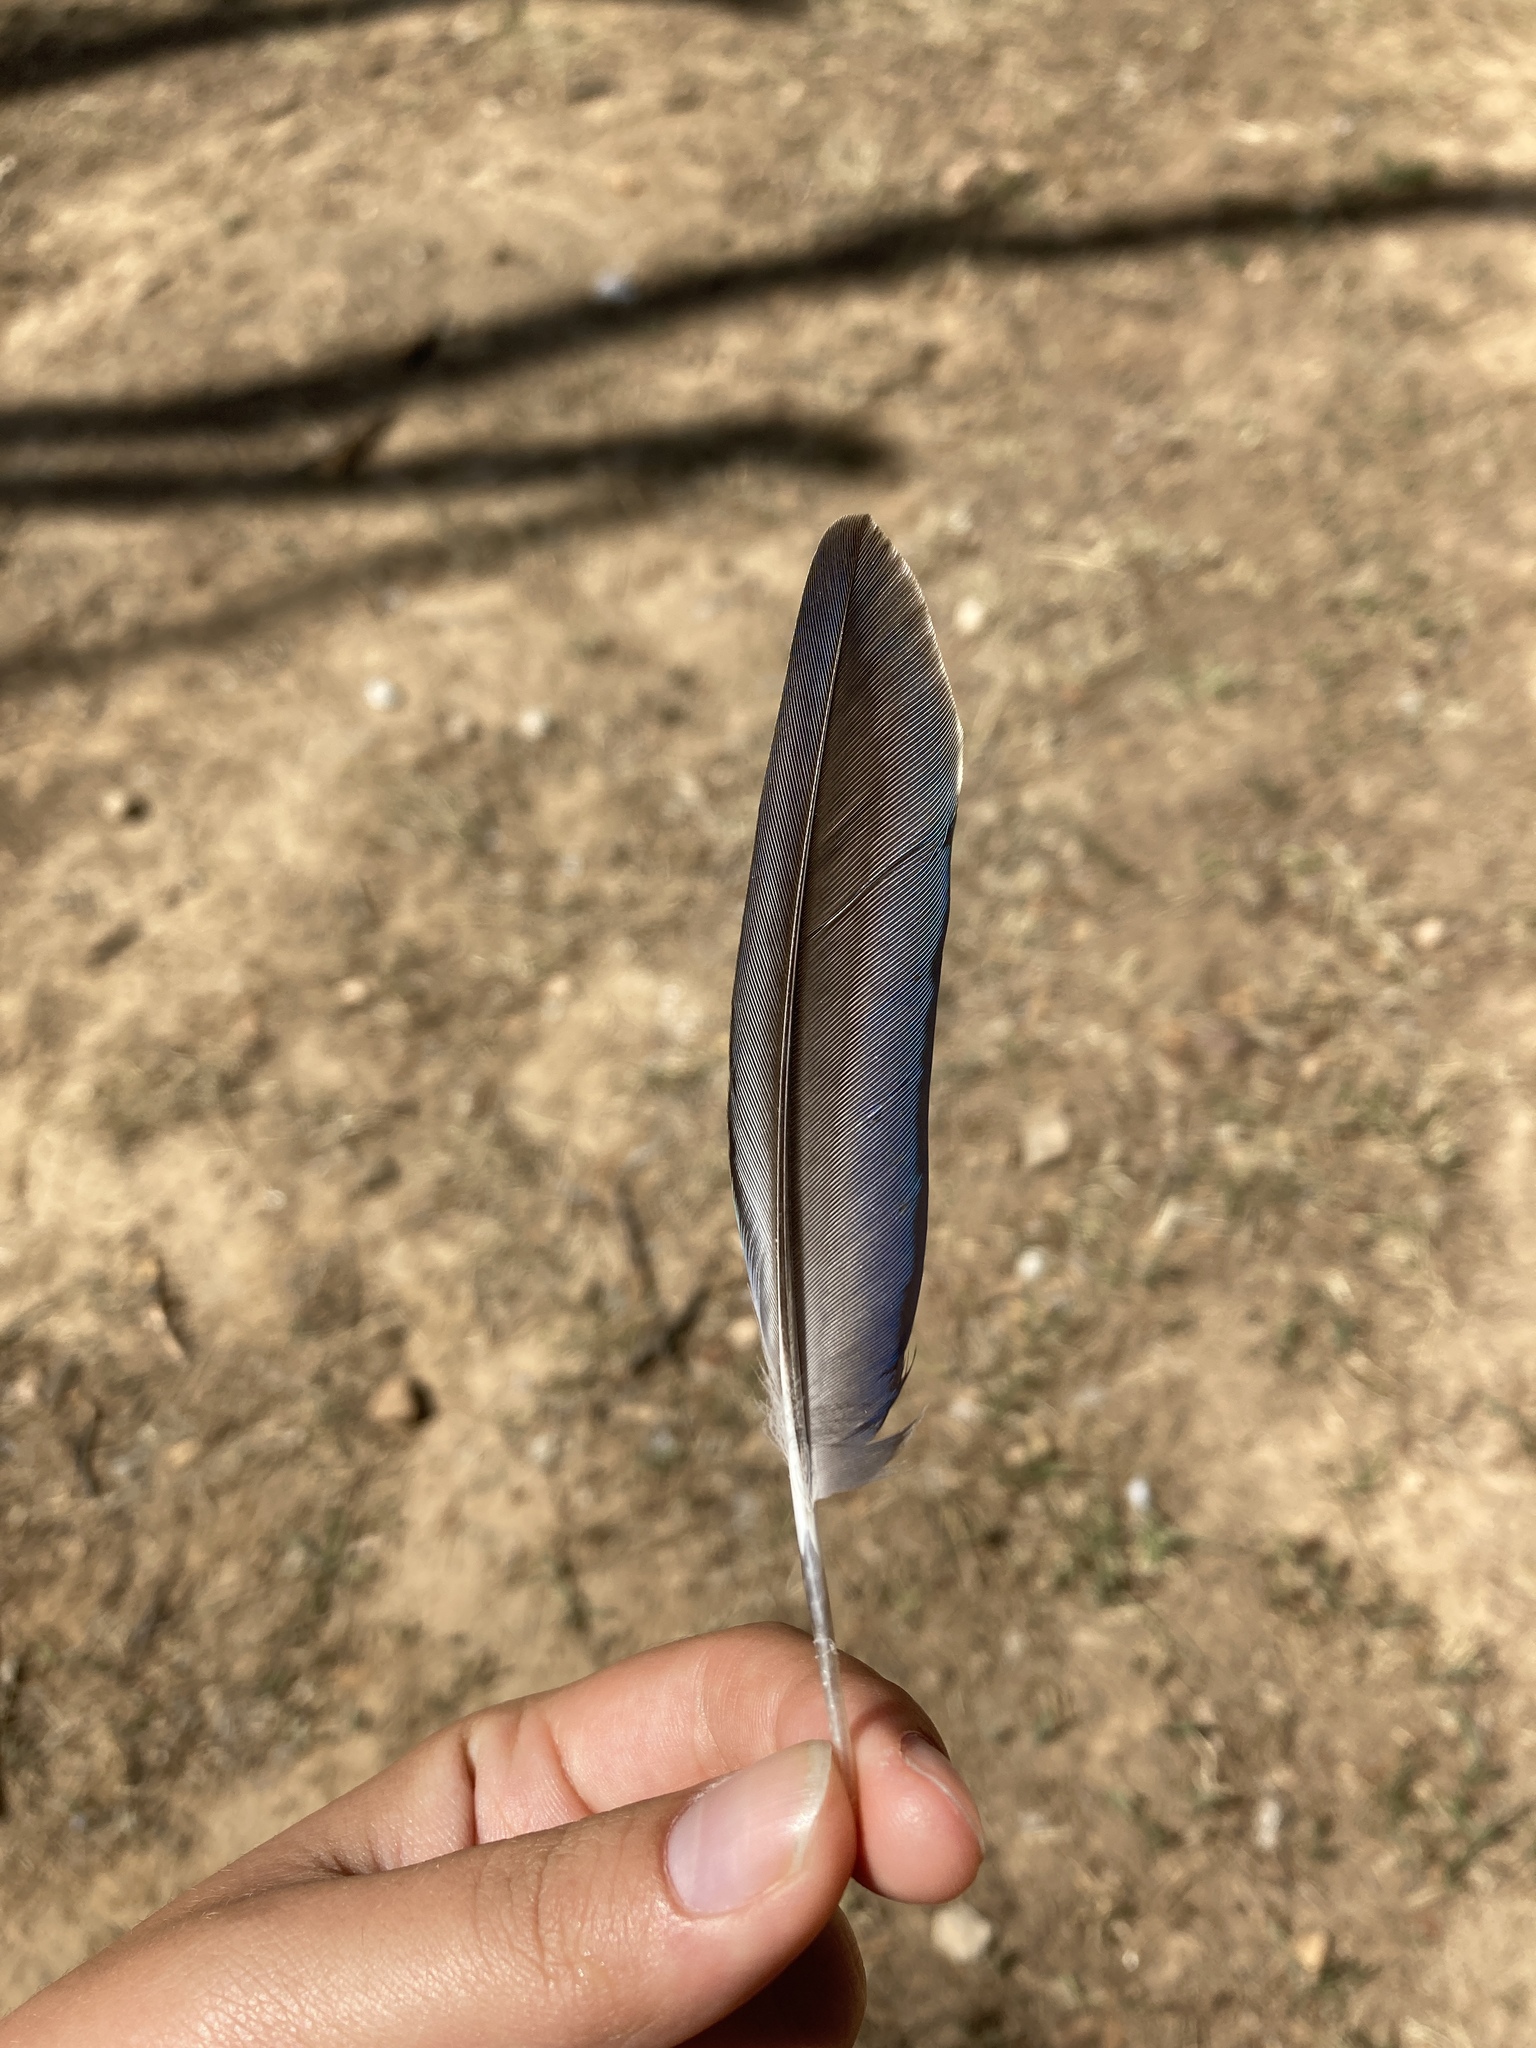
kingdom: Animalia
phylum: Chordata
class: Aves
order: Psittaciformes
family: Psittacidae
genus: Myiopsitta
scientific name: Myiopsitta monachus
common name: Monk parakeet
